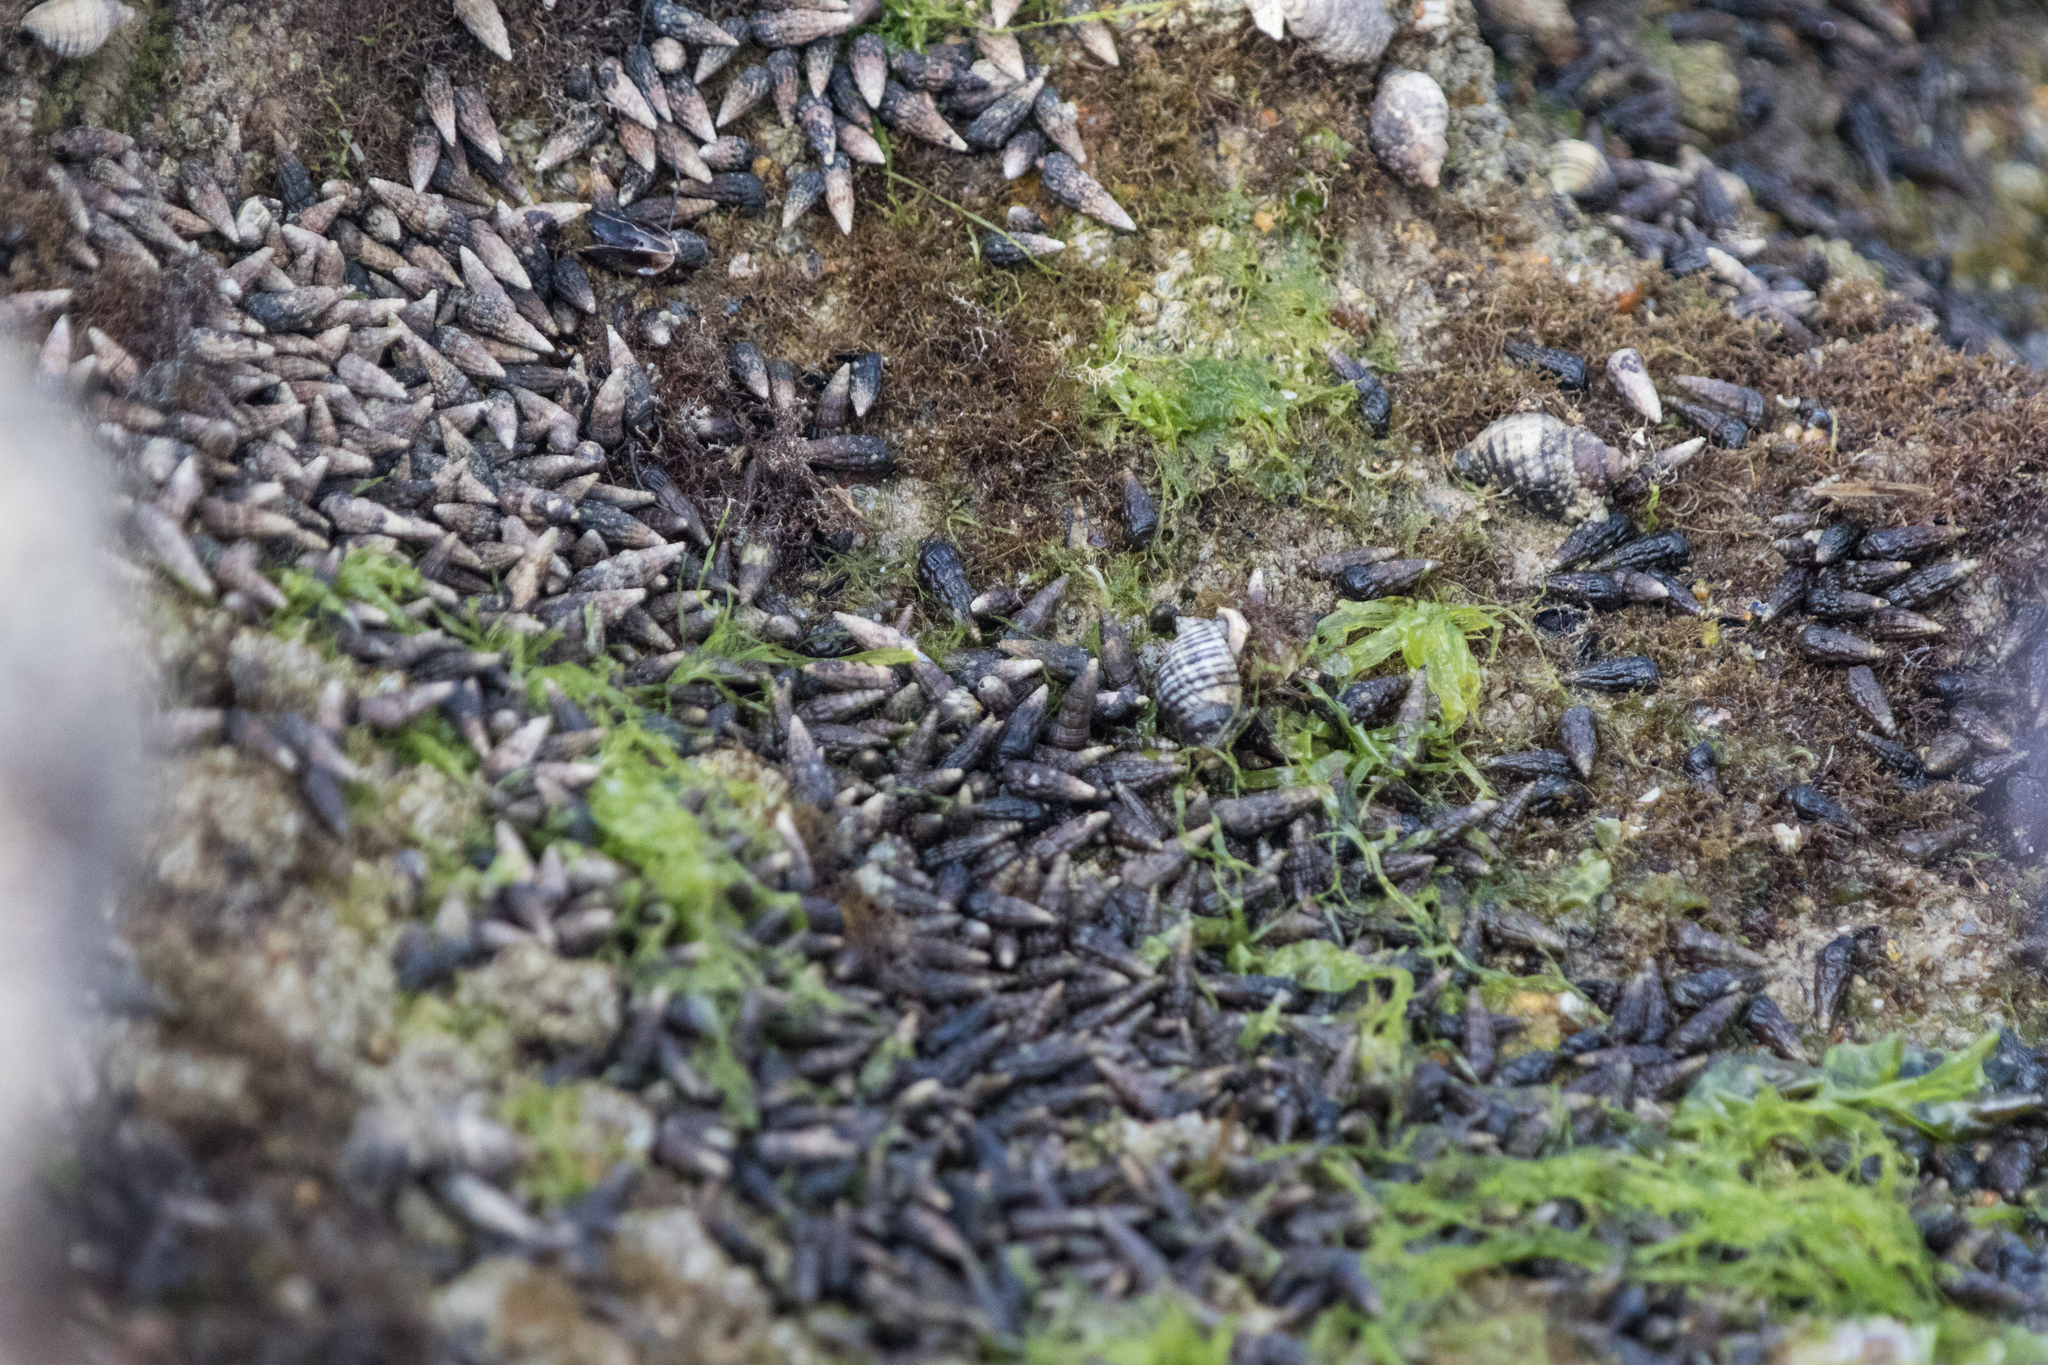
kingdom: Animalia
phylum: Mollusca
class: Gastropoda
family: Batillariidae
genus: Zeacumantus
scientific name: Zeacumantus subcarinatus
